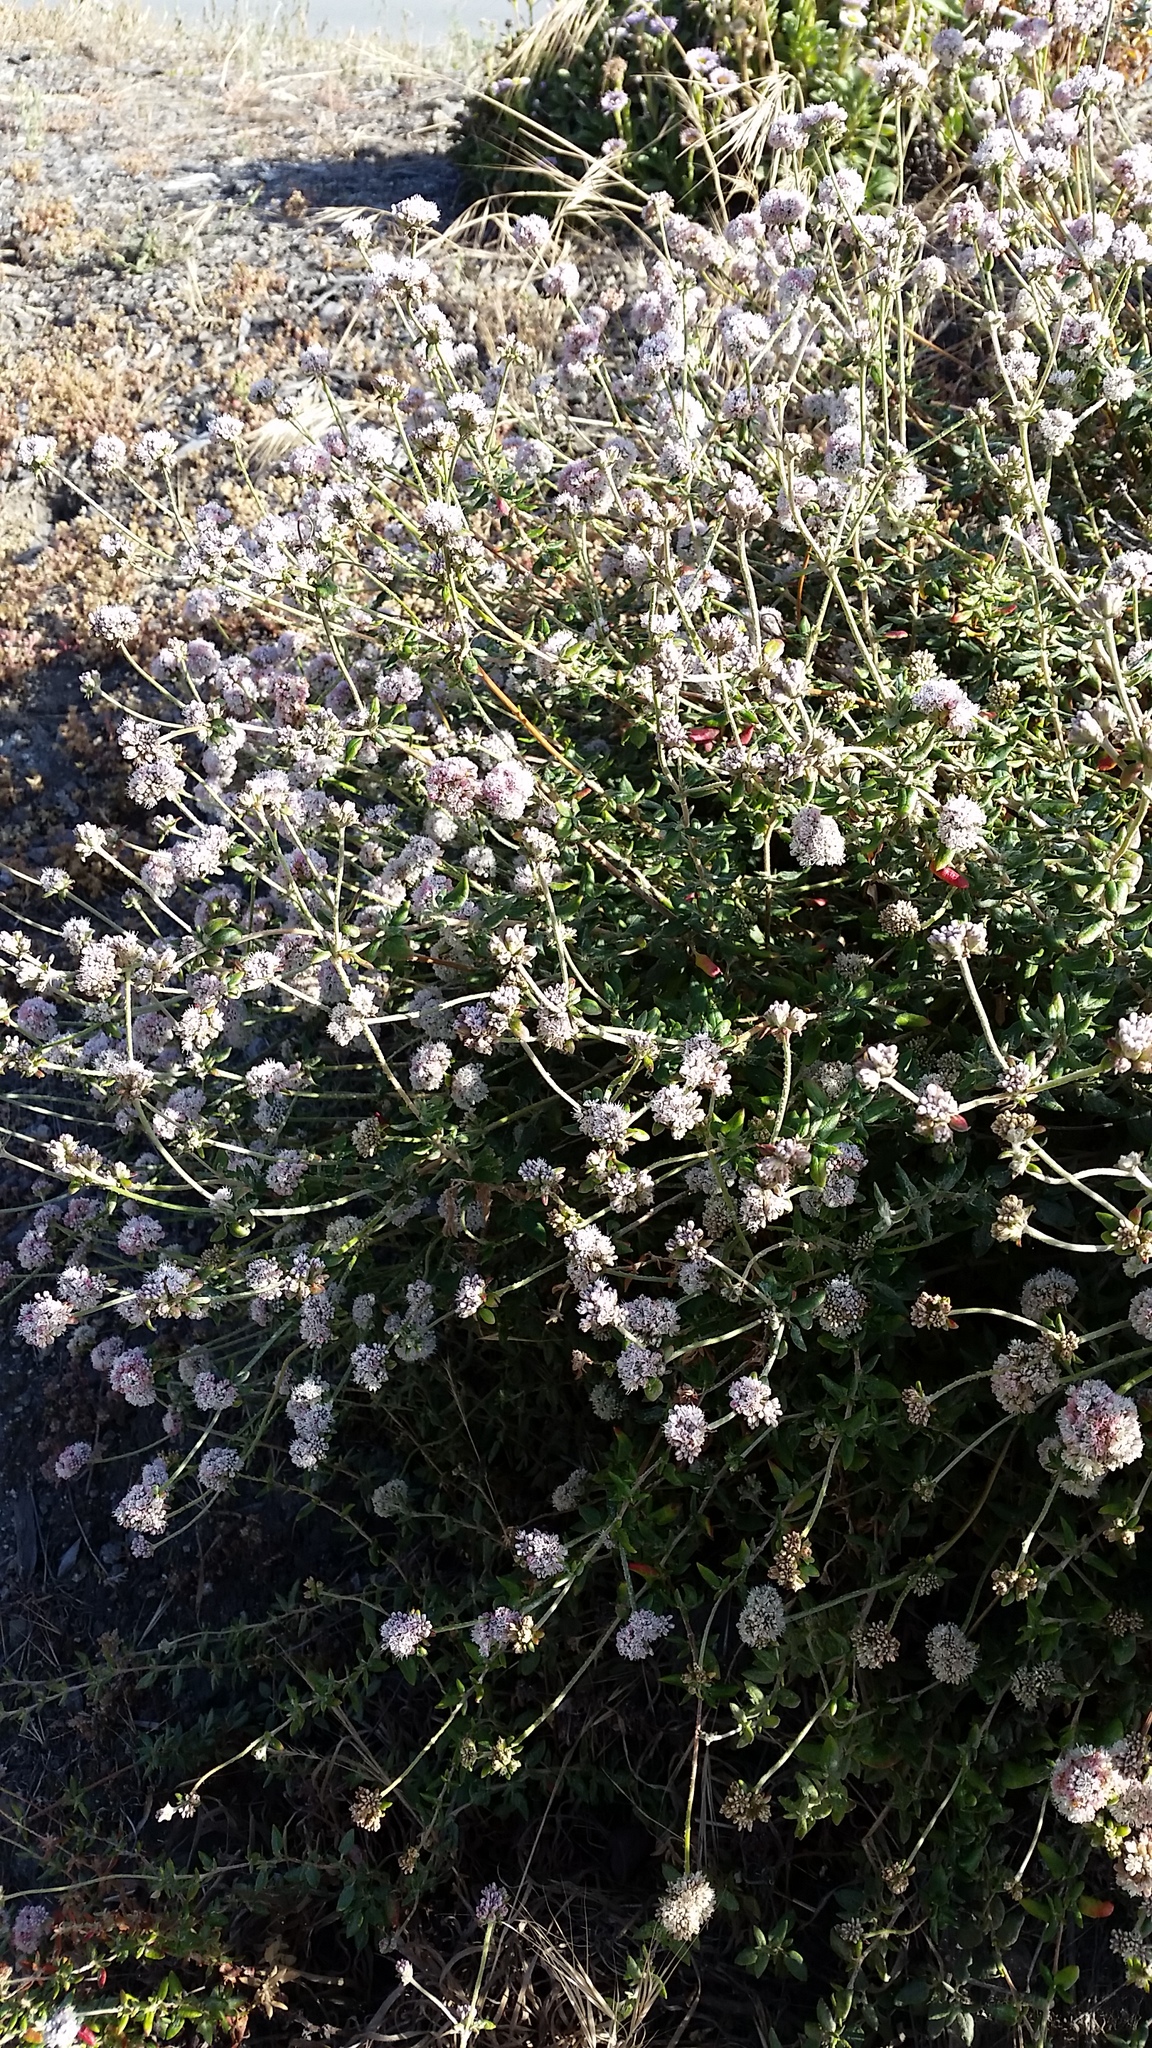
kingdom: Plantae
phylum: Tracheophyta
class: Magnoliopsida
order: Caryophyllales
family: Polygonaceae
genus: Eriogonum
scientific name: Eriogonum parvifolium
